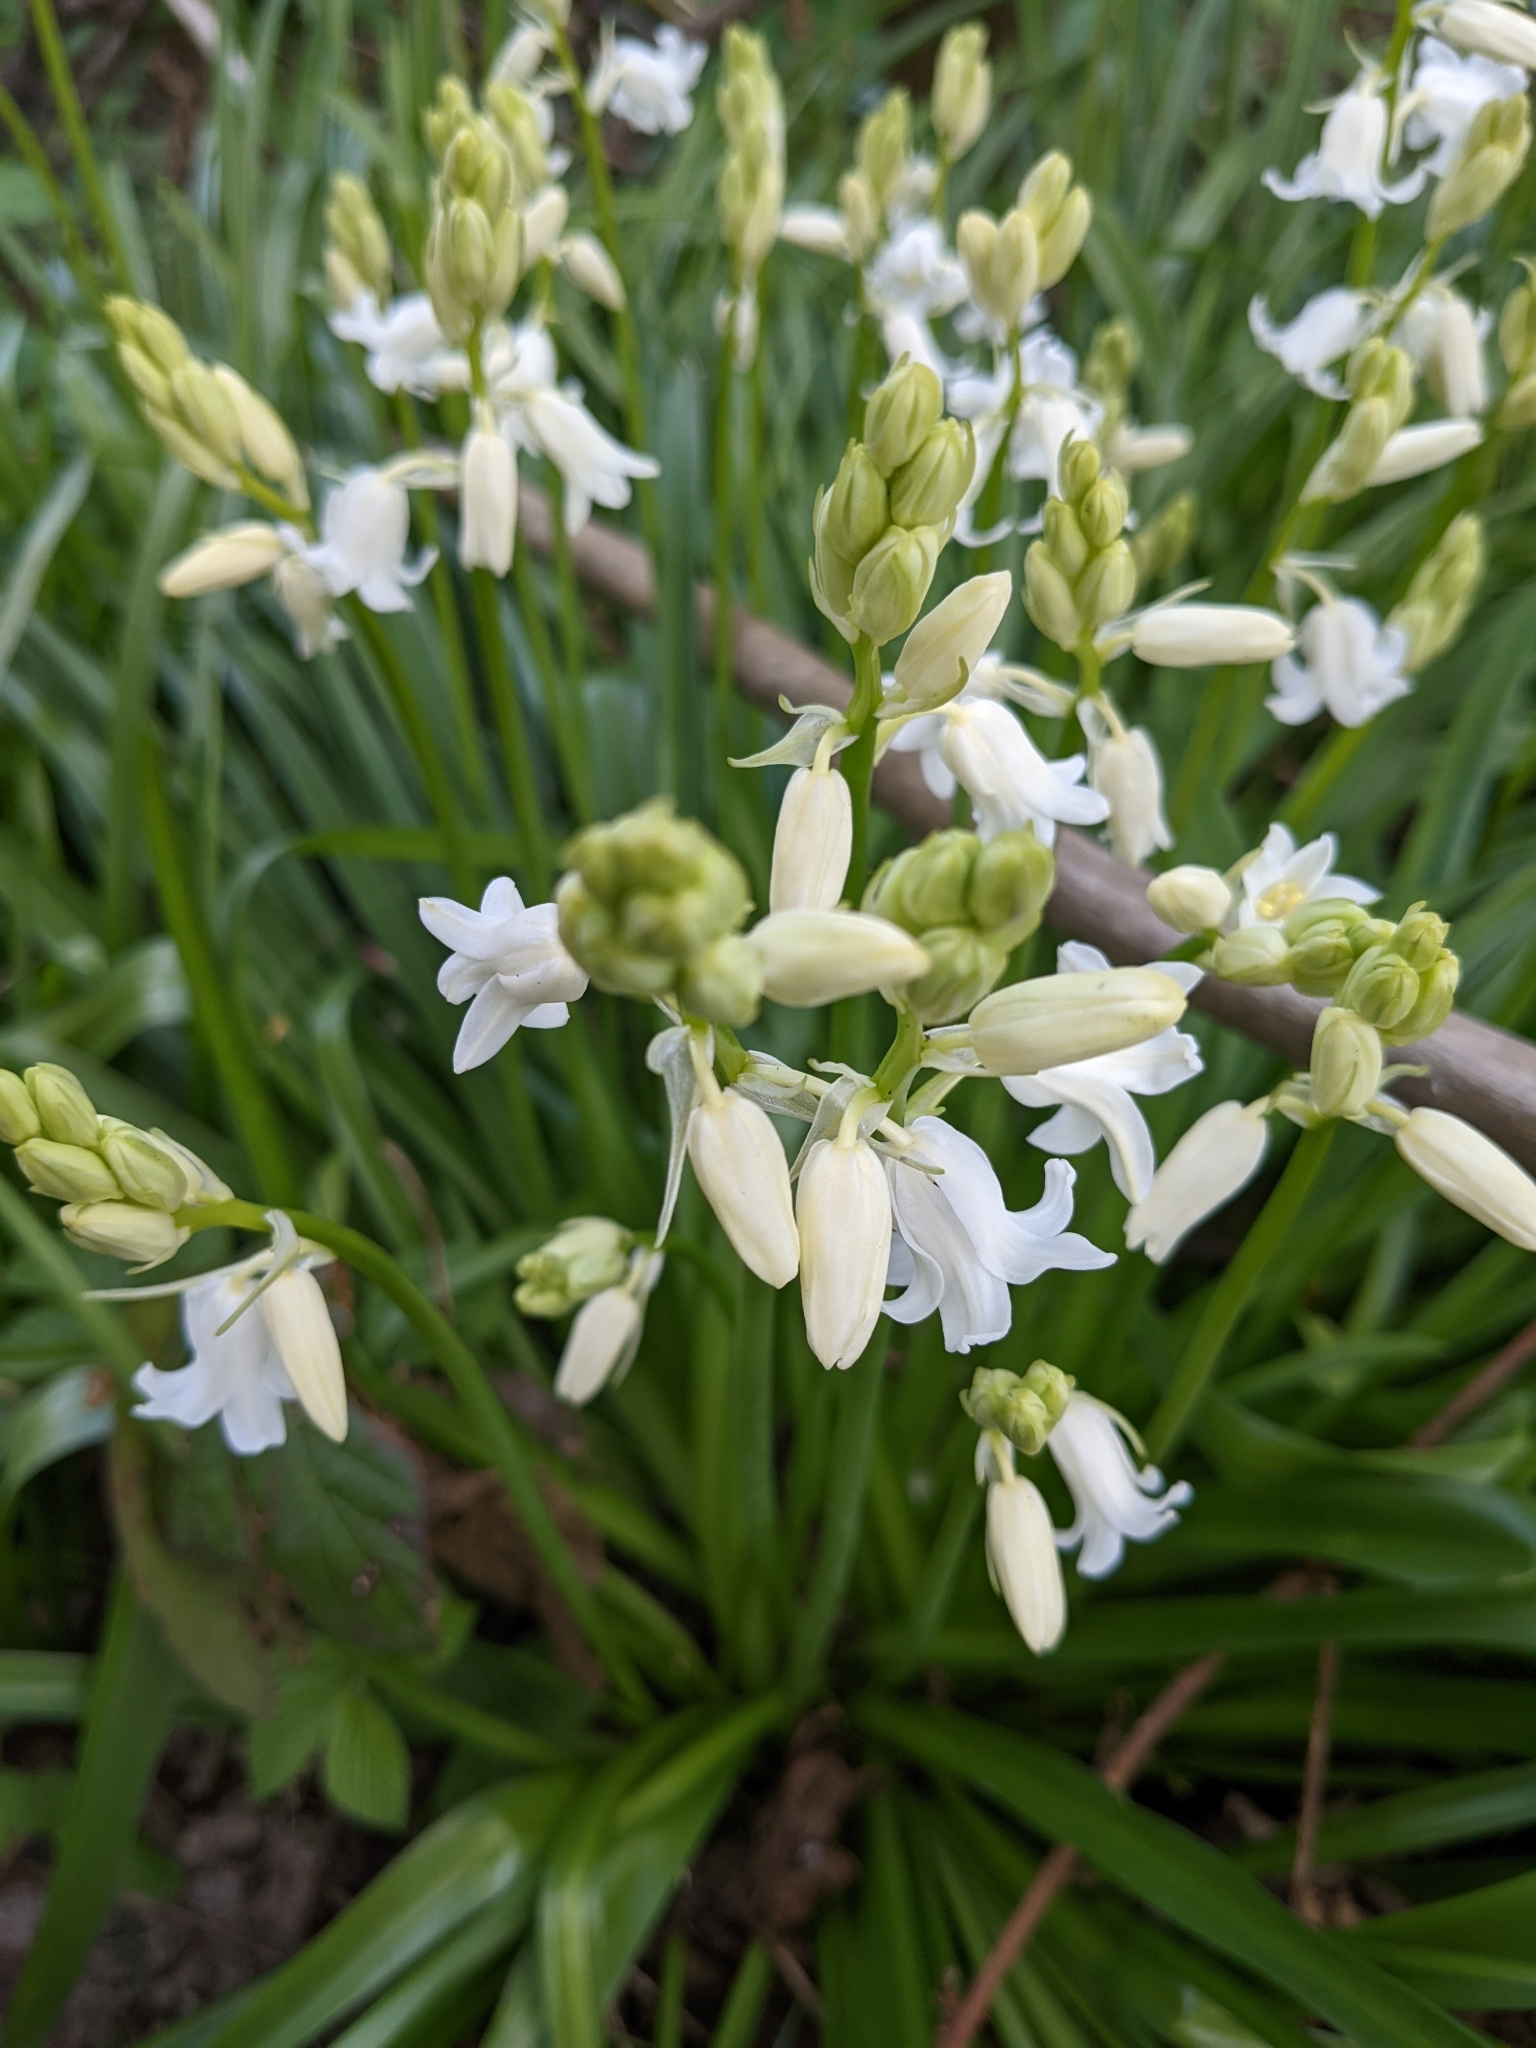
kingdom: Plantae
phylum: Tracheophyta
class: Liliopsida
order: Asparagales
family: Asparagaceae
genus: Hyacinthoides
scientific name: Hyacinthoides massartiana
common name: Hyacinthoides
